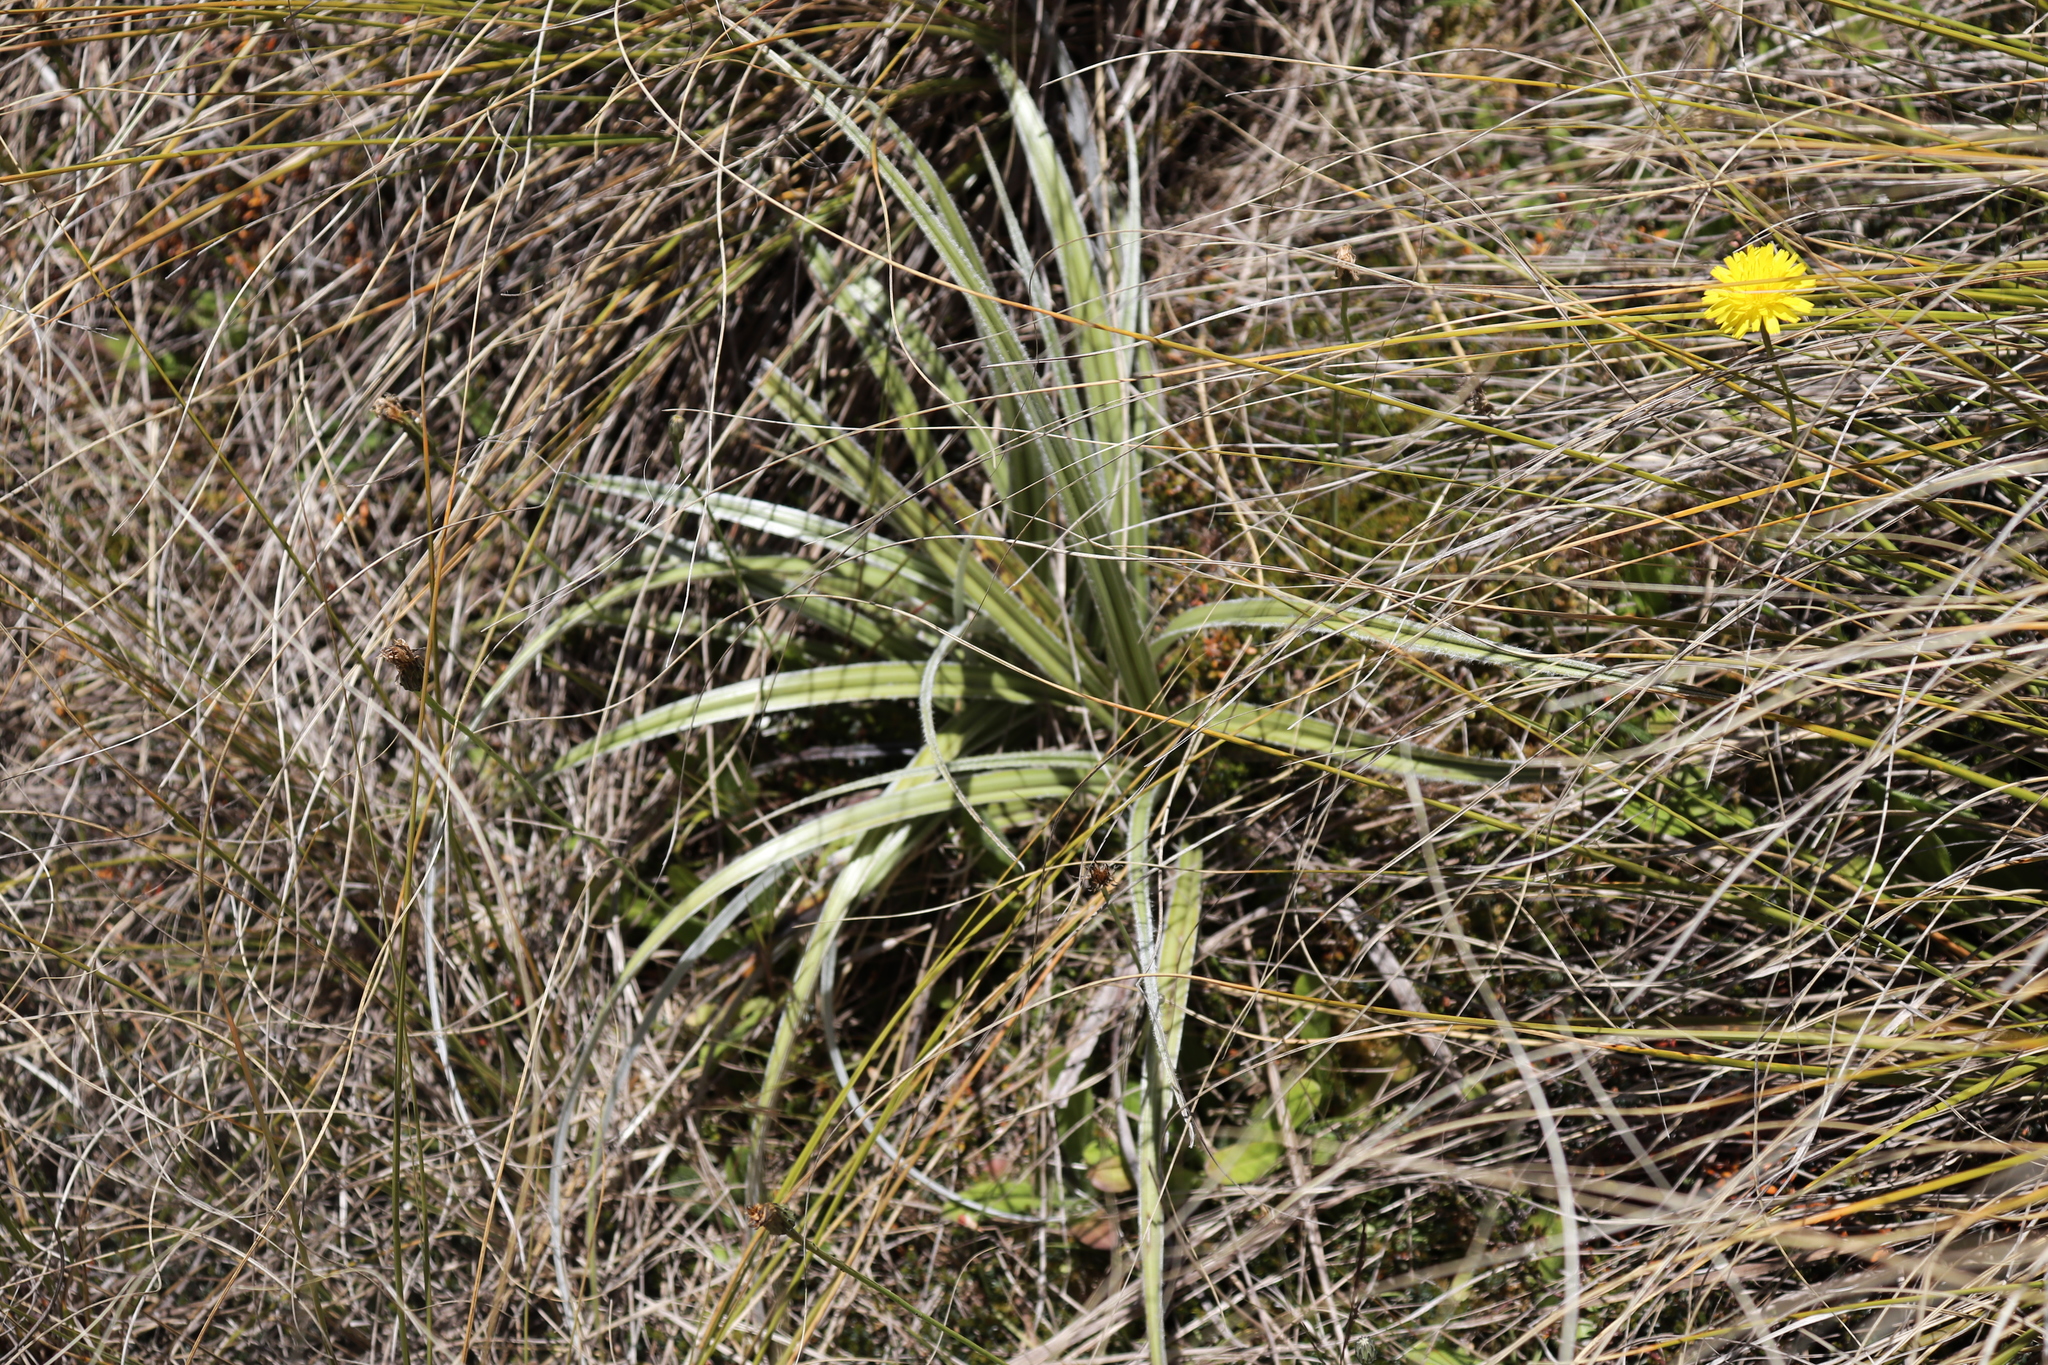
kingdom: Plantae
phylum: Tracheophyta
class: Liliopsida
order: Asparagales
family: Asteliaceae
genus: Astelia
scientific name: Astelia nervosa
